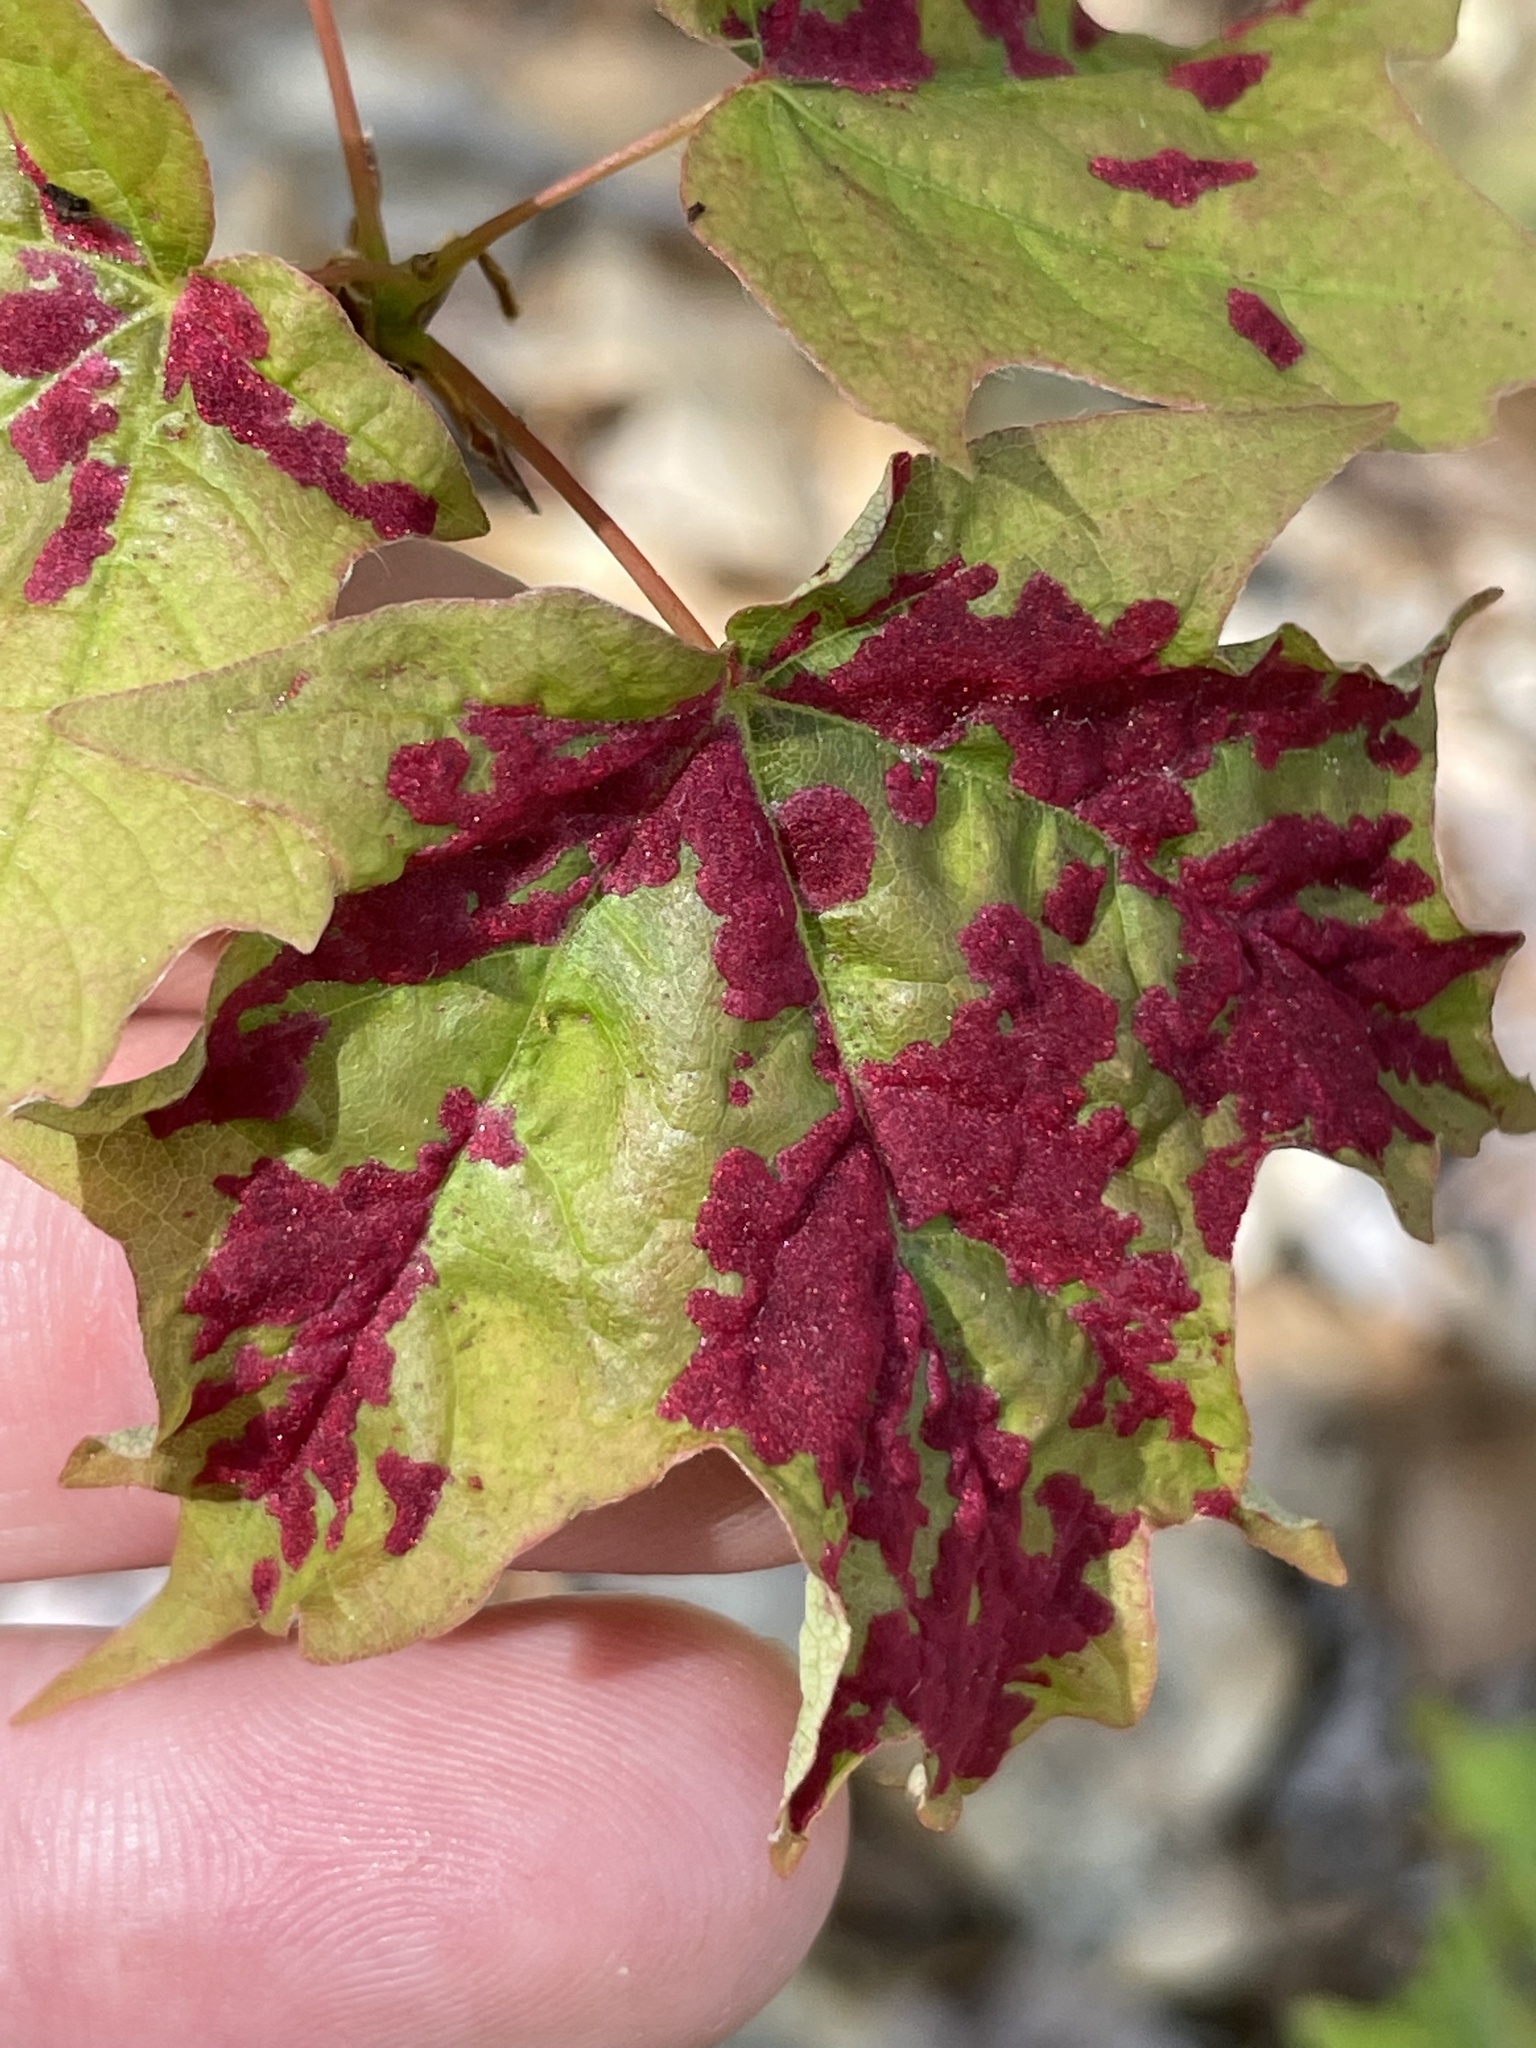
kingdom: Animalia
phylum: Arthropoda
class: Arachnida
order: Trombidiformes
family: Eriophyidae
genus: Aceria
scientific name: Aceria
